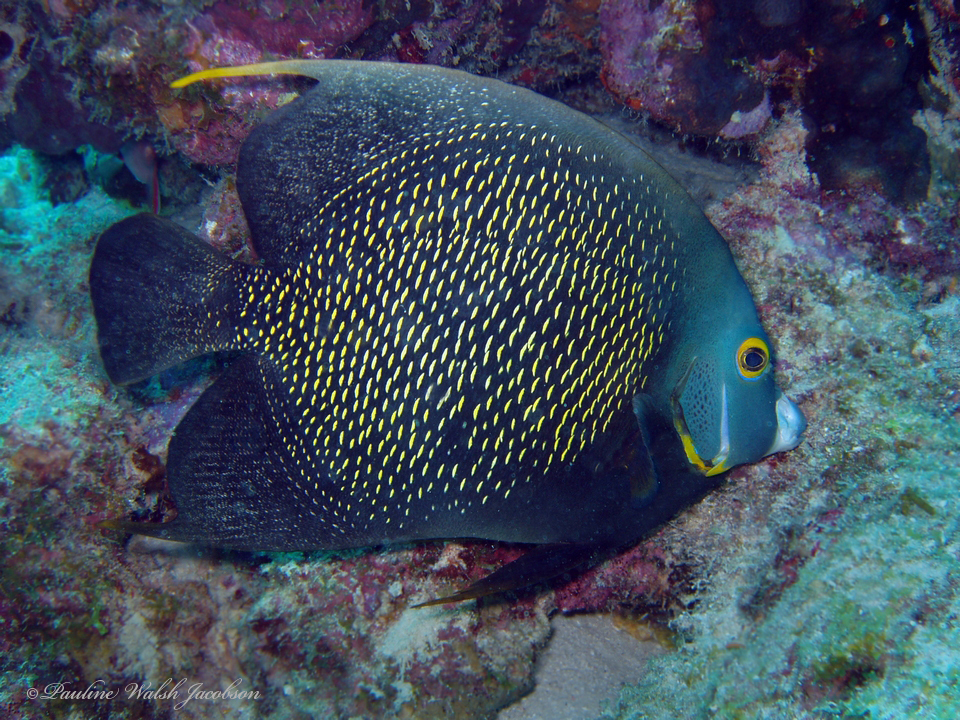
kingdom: Animalia
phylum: Chordata
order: Perciformes
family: Pomacanthidae
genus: Pomacanthus
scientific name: Pomacanthus paru
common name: French angelfish
